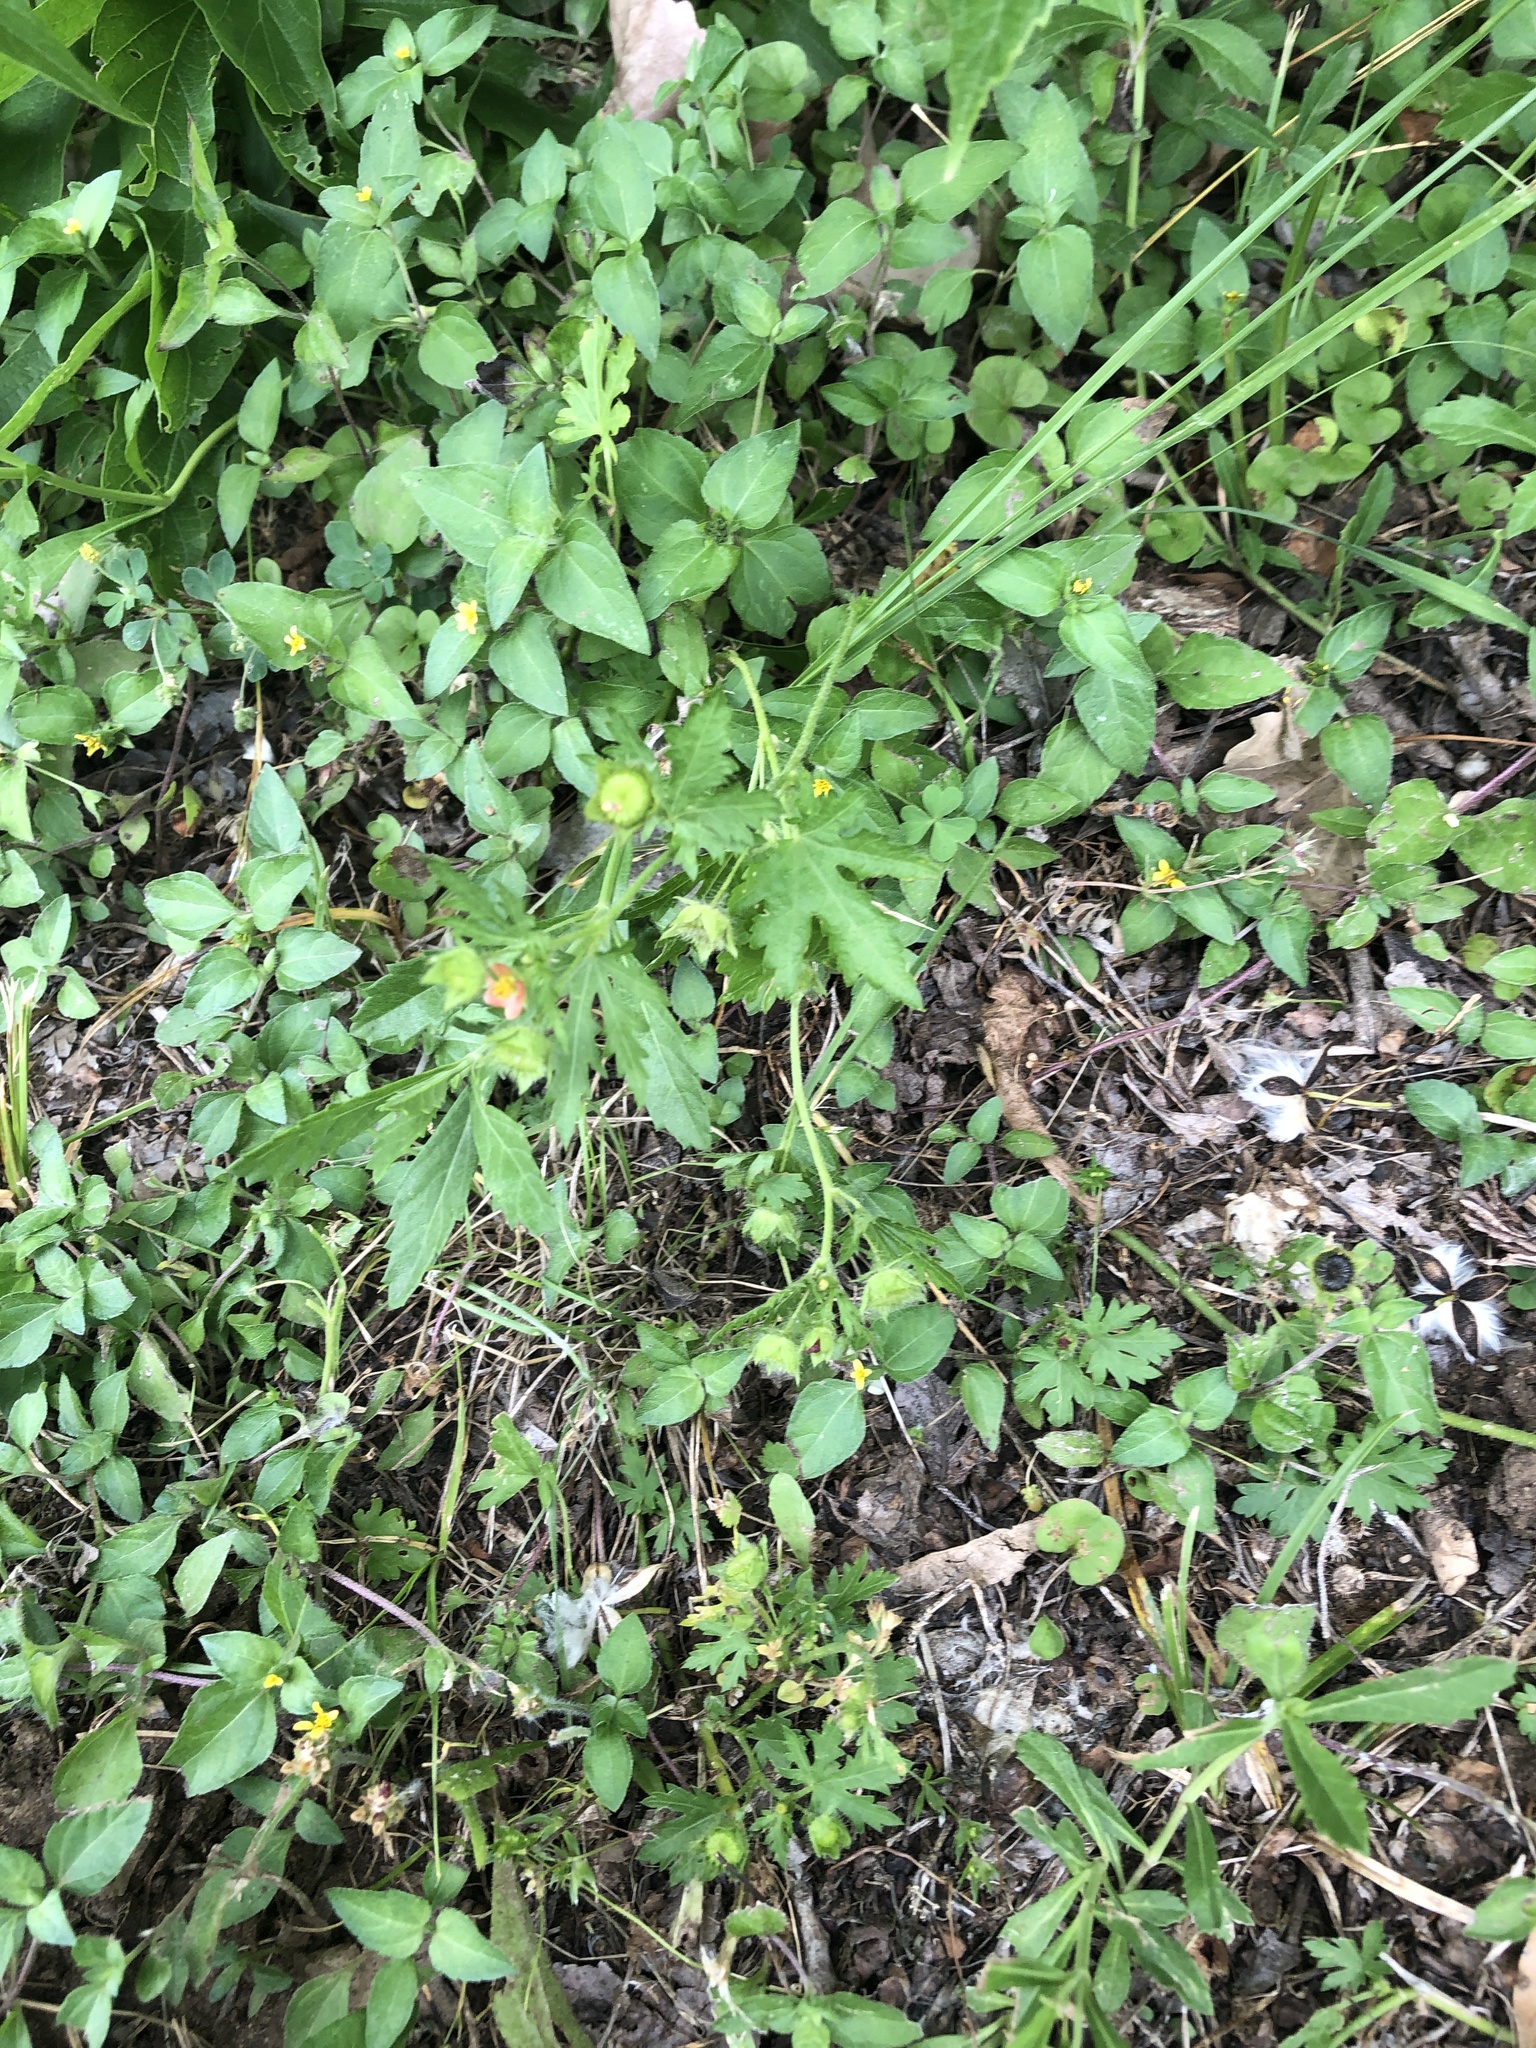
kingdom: Plantae
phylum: Tracheophyta
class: Magnoliopsida
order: Malvales
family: Malvaceae
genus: Modiola
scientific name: Modiola caroliniana
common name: Carolina bristlemallow
